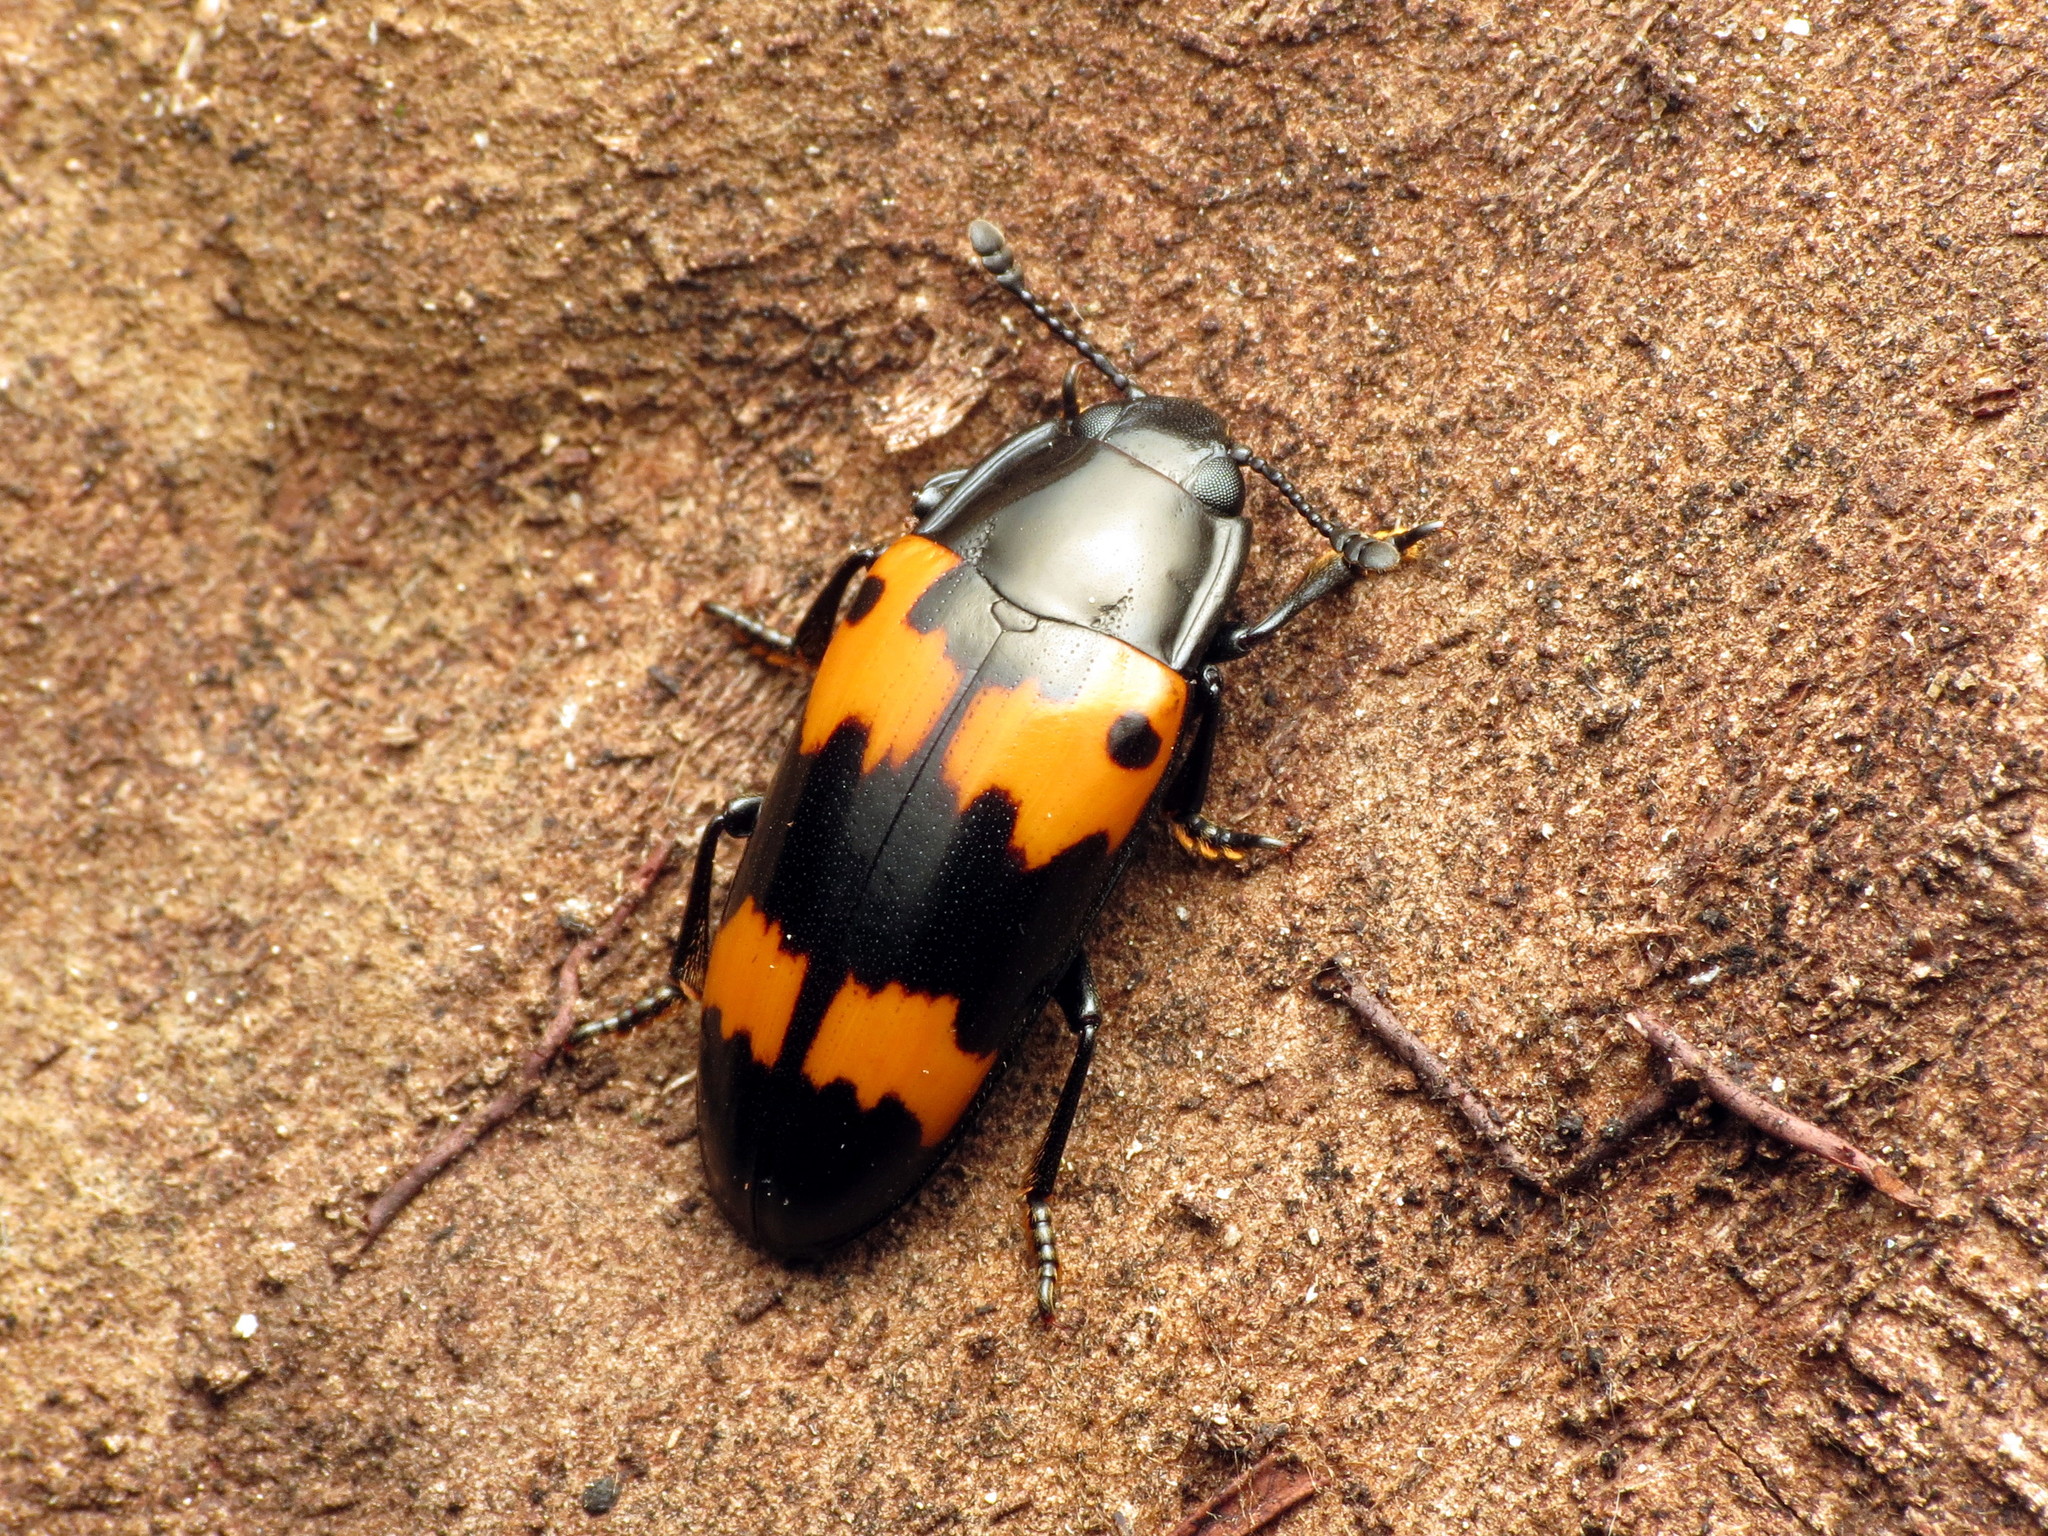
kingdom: Animalia
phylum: Arthropoda
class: Insecta
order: Coleoptera
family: Erotylidae
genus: Megalodacne
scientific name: Megalodacne fasciata
